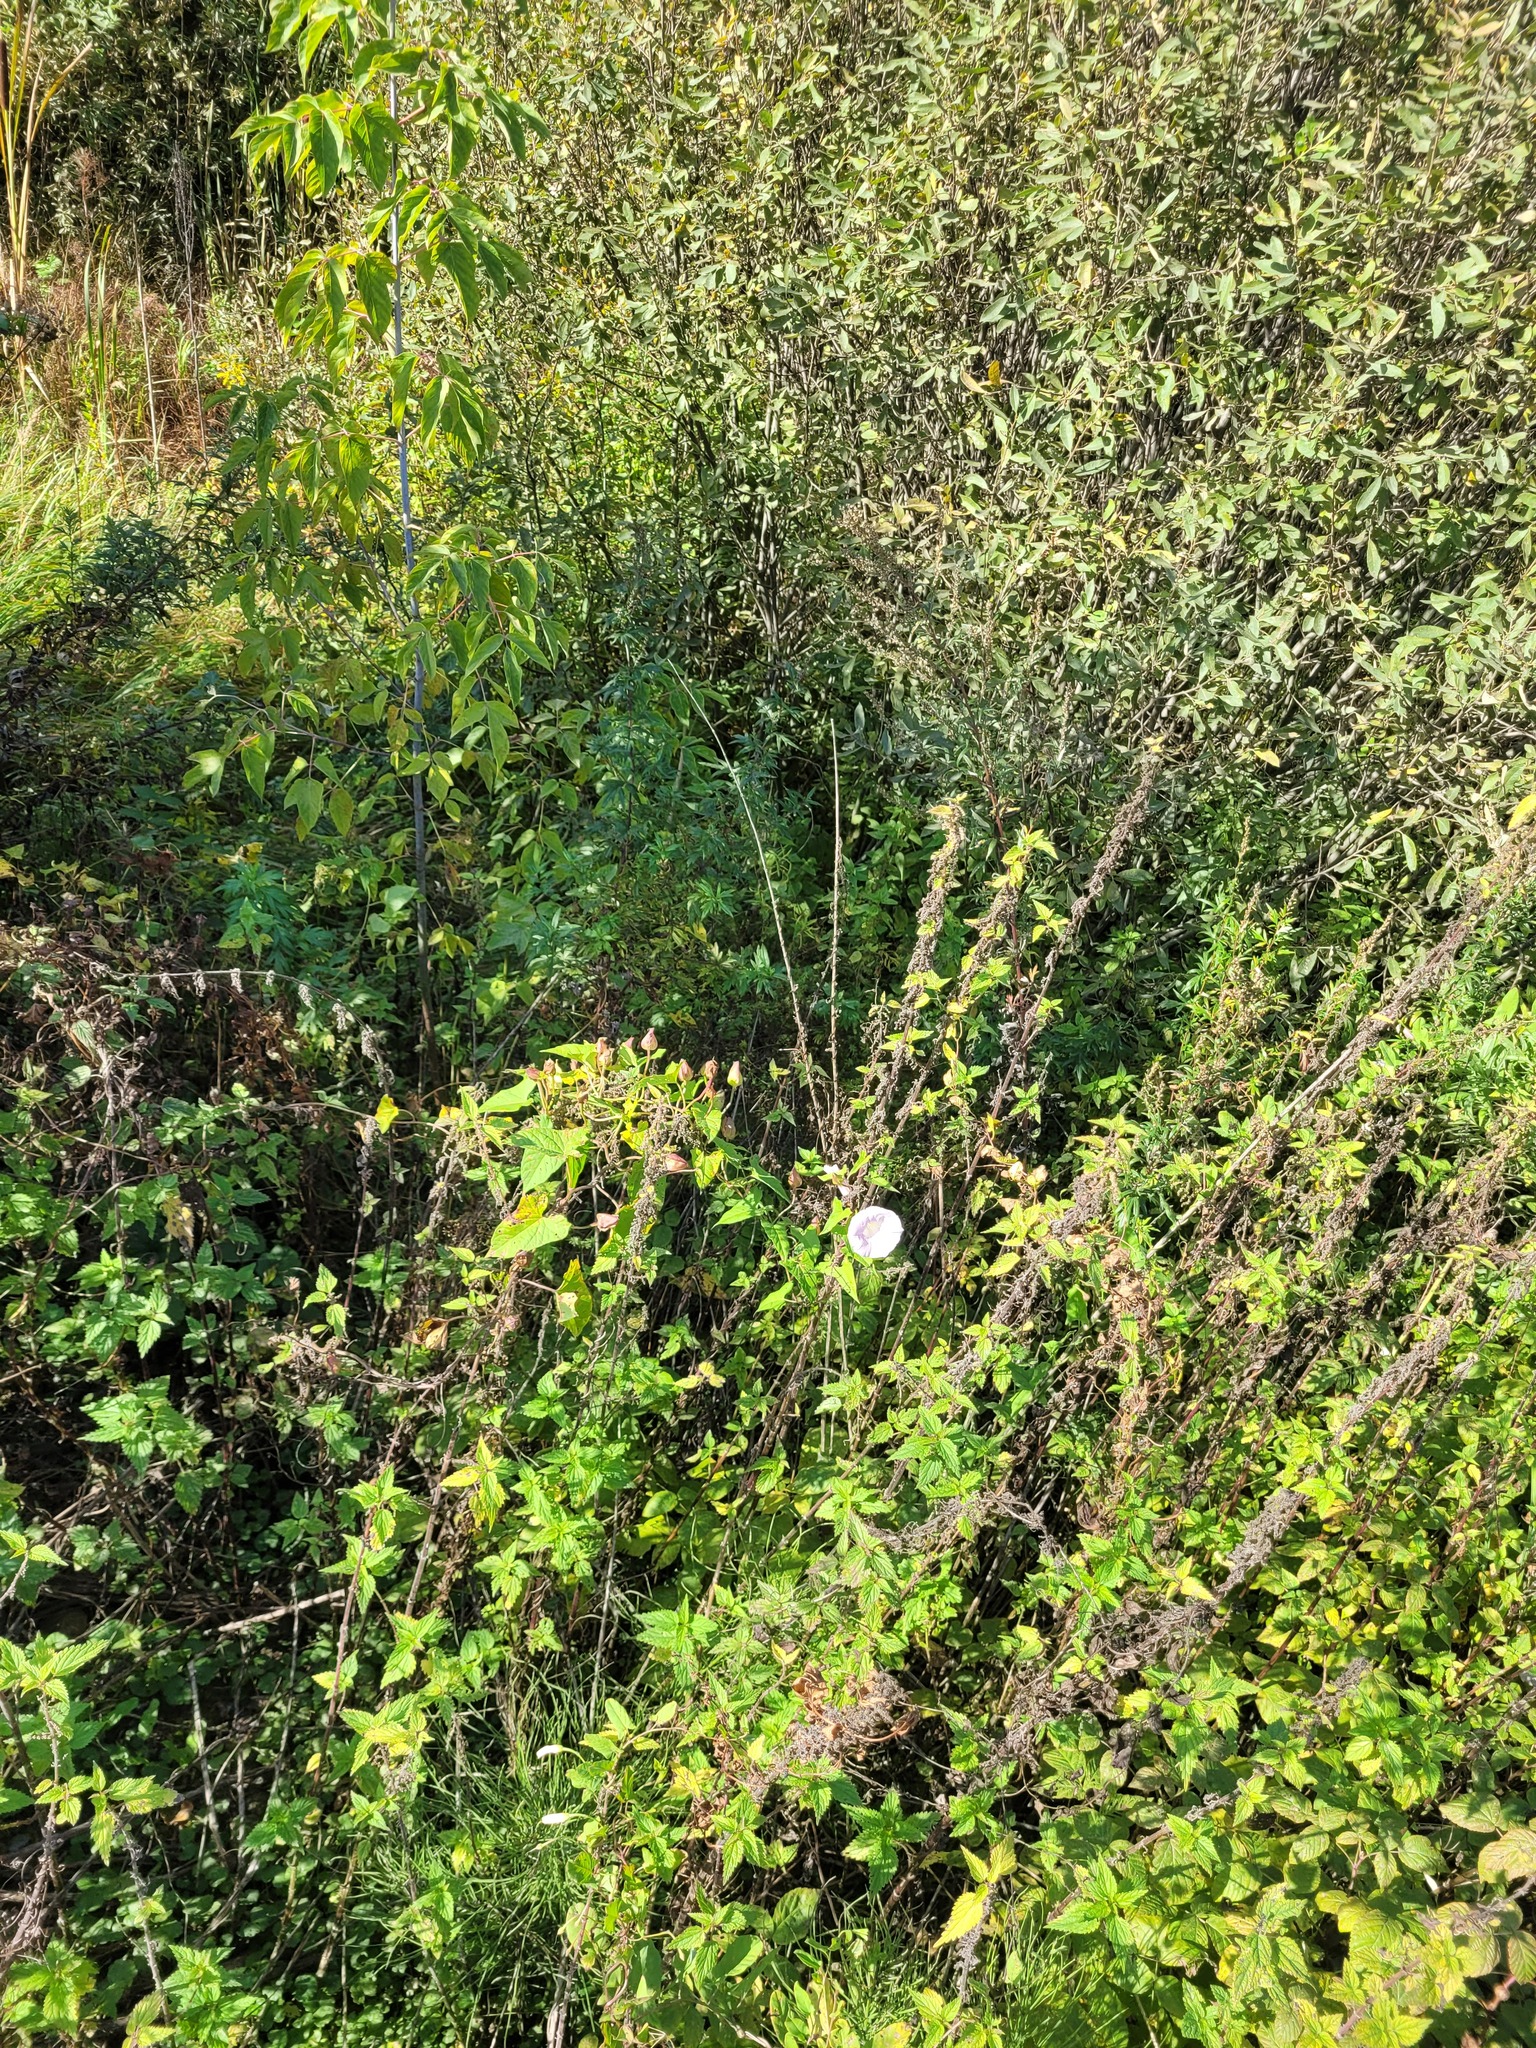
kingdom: Plantae
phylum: Tracheophyta
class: Magnoliopsida
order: Solanales
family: Convolvulaceae
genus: Calystegia
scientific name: Calystegia sepium
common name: Hedge bindweed
